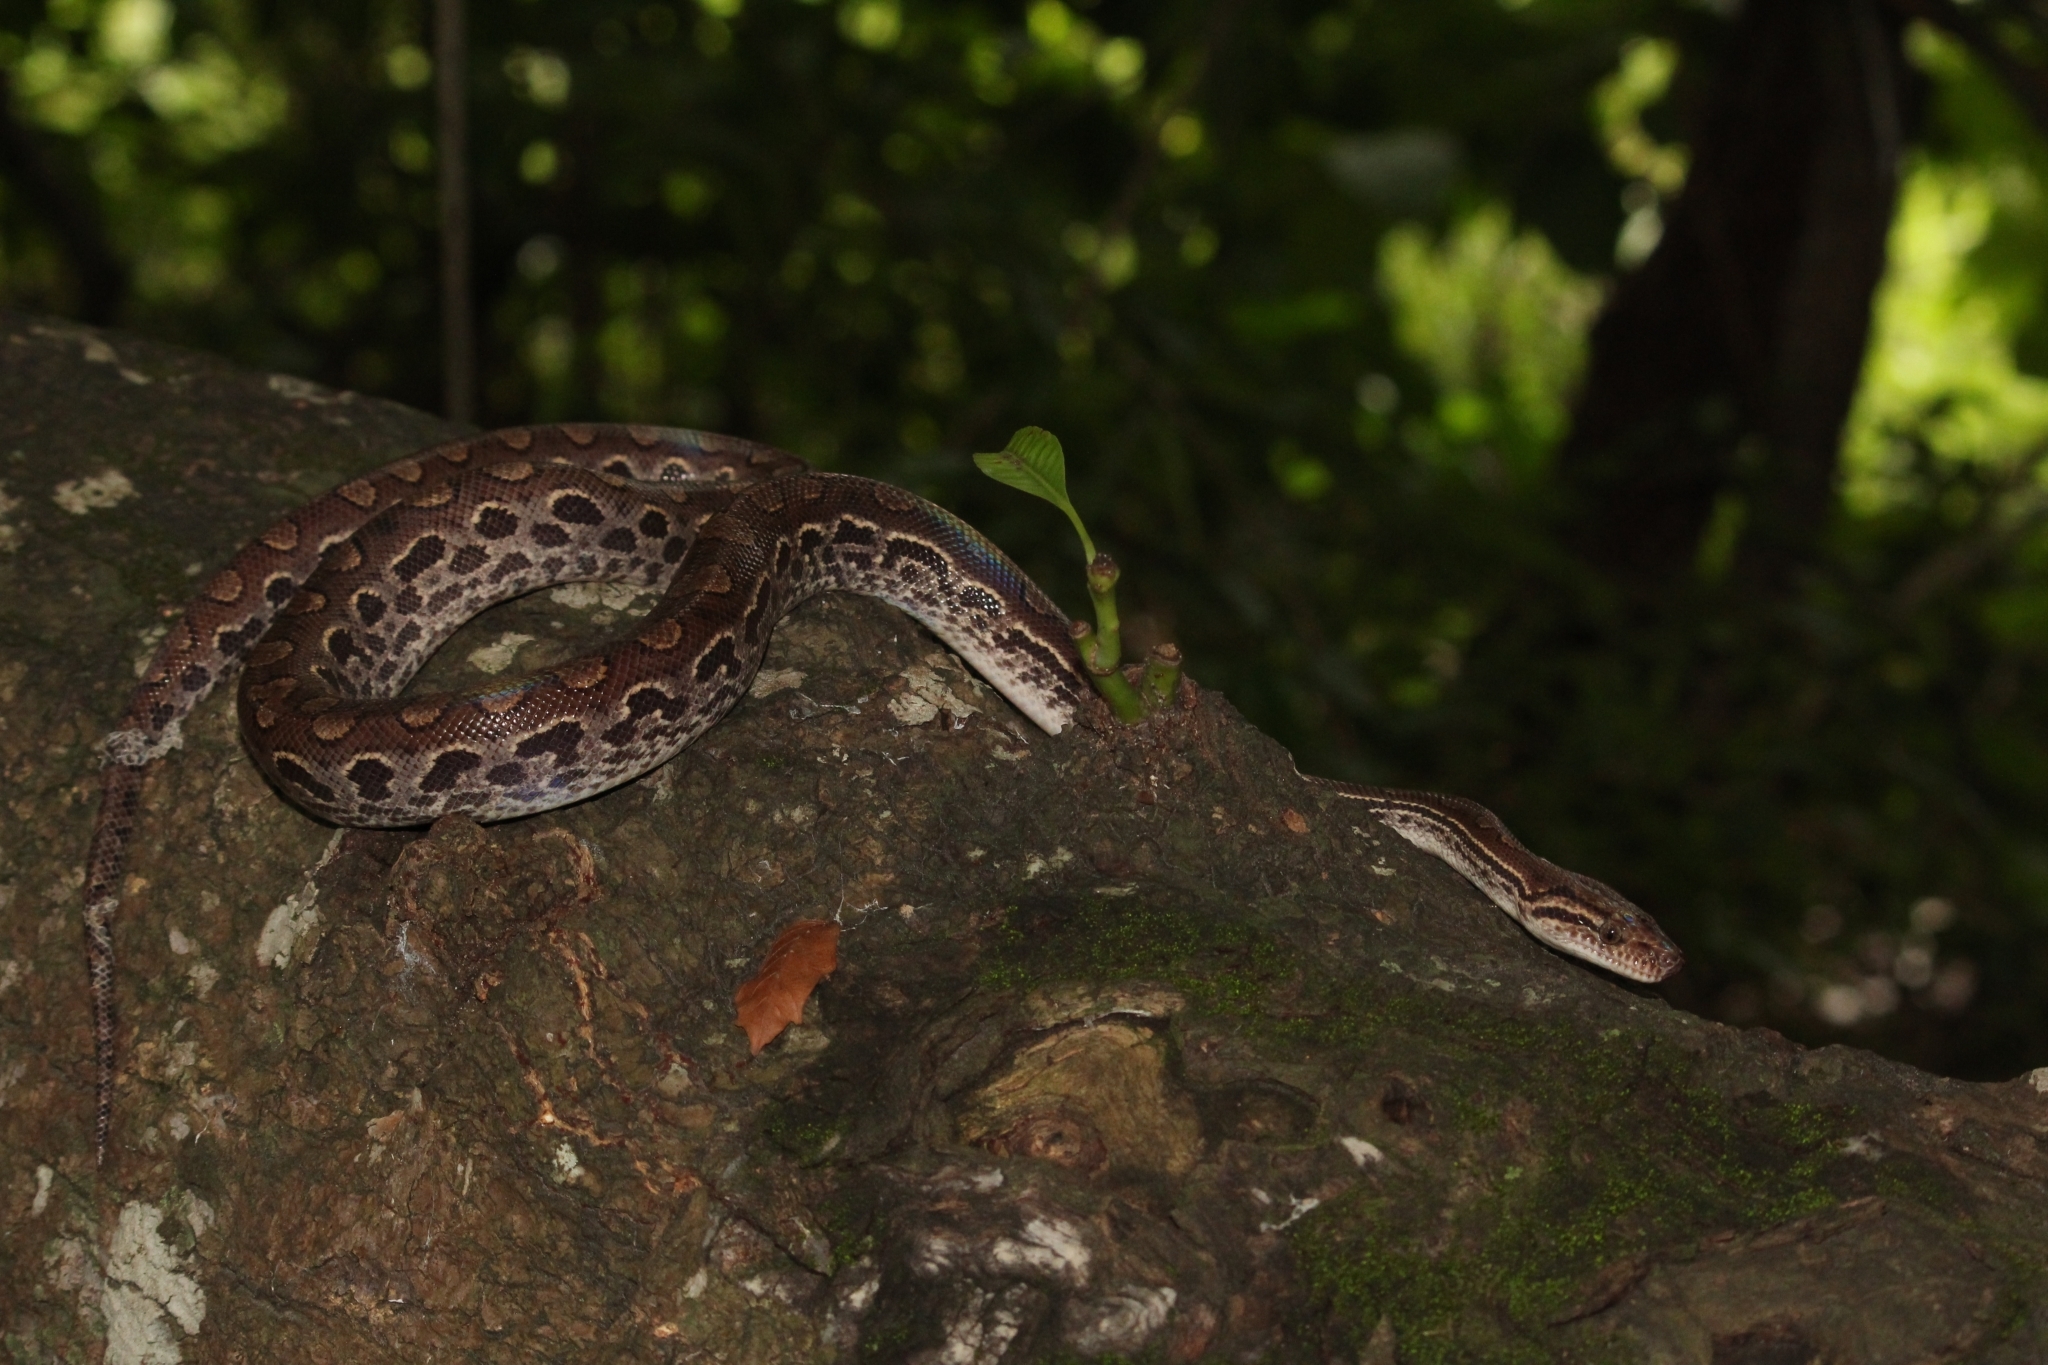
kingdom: Animalia
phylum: Chordata
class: Squamata
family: Boidae
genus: Epicrates
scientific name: Epicrates assisi
